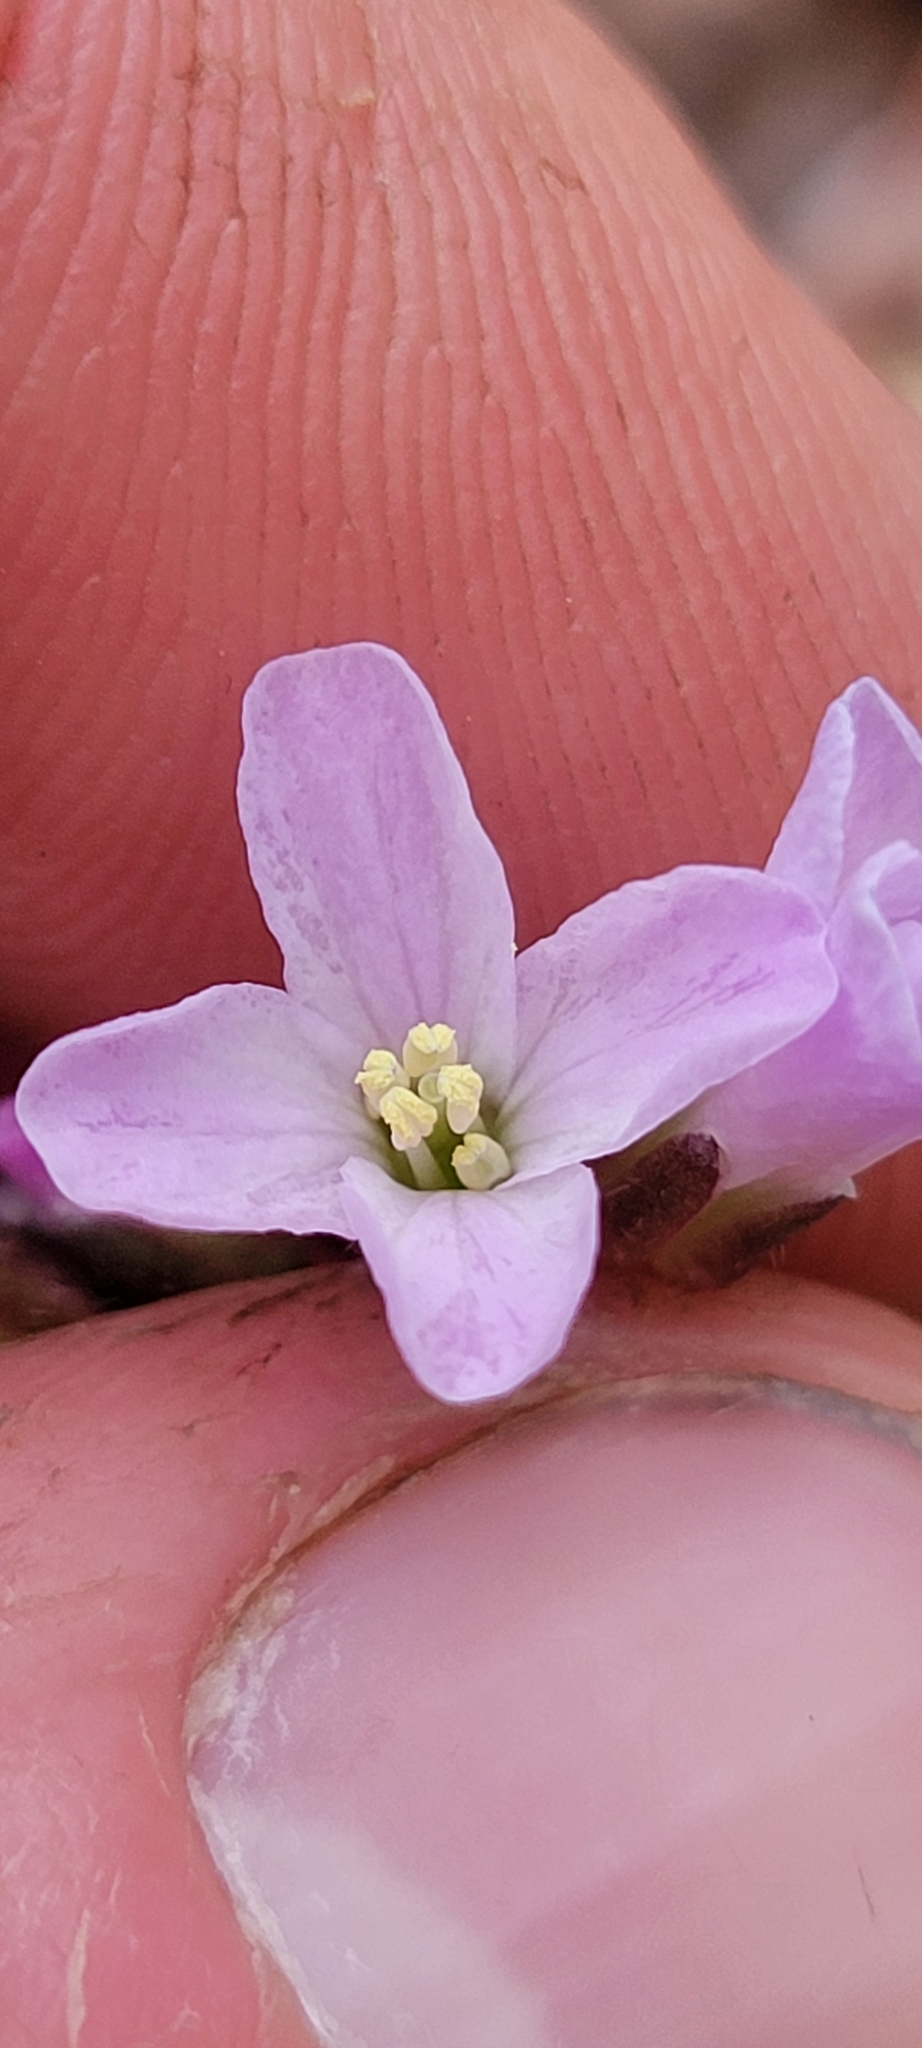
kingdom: Plantae
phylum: Tracheophyta
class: Magnoliopsida
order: Brassicales
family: Brassicaceae
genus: Cardamine
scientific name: Cardamine douglassii
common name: Purple cress
